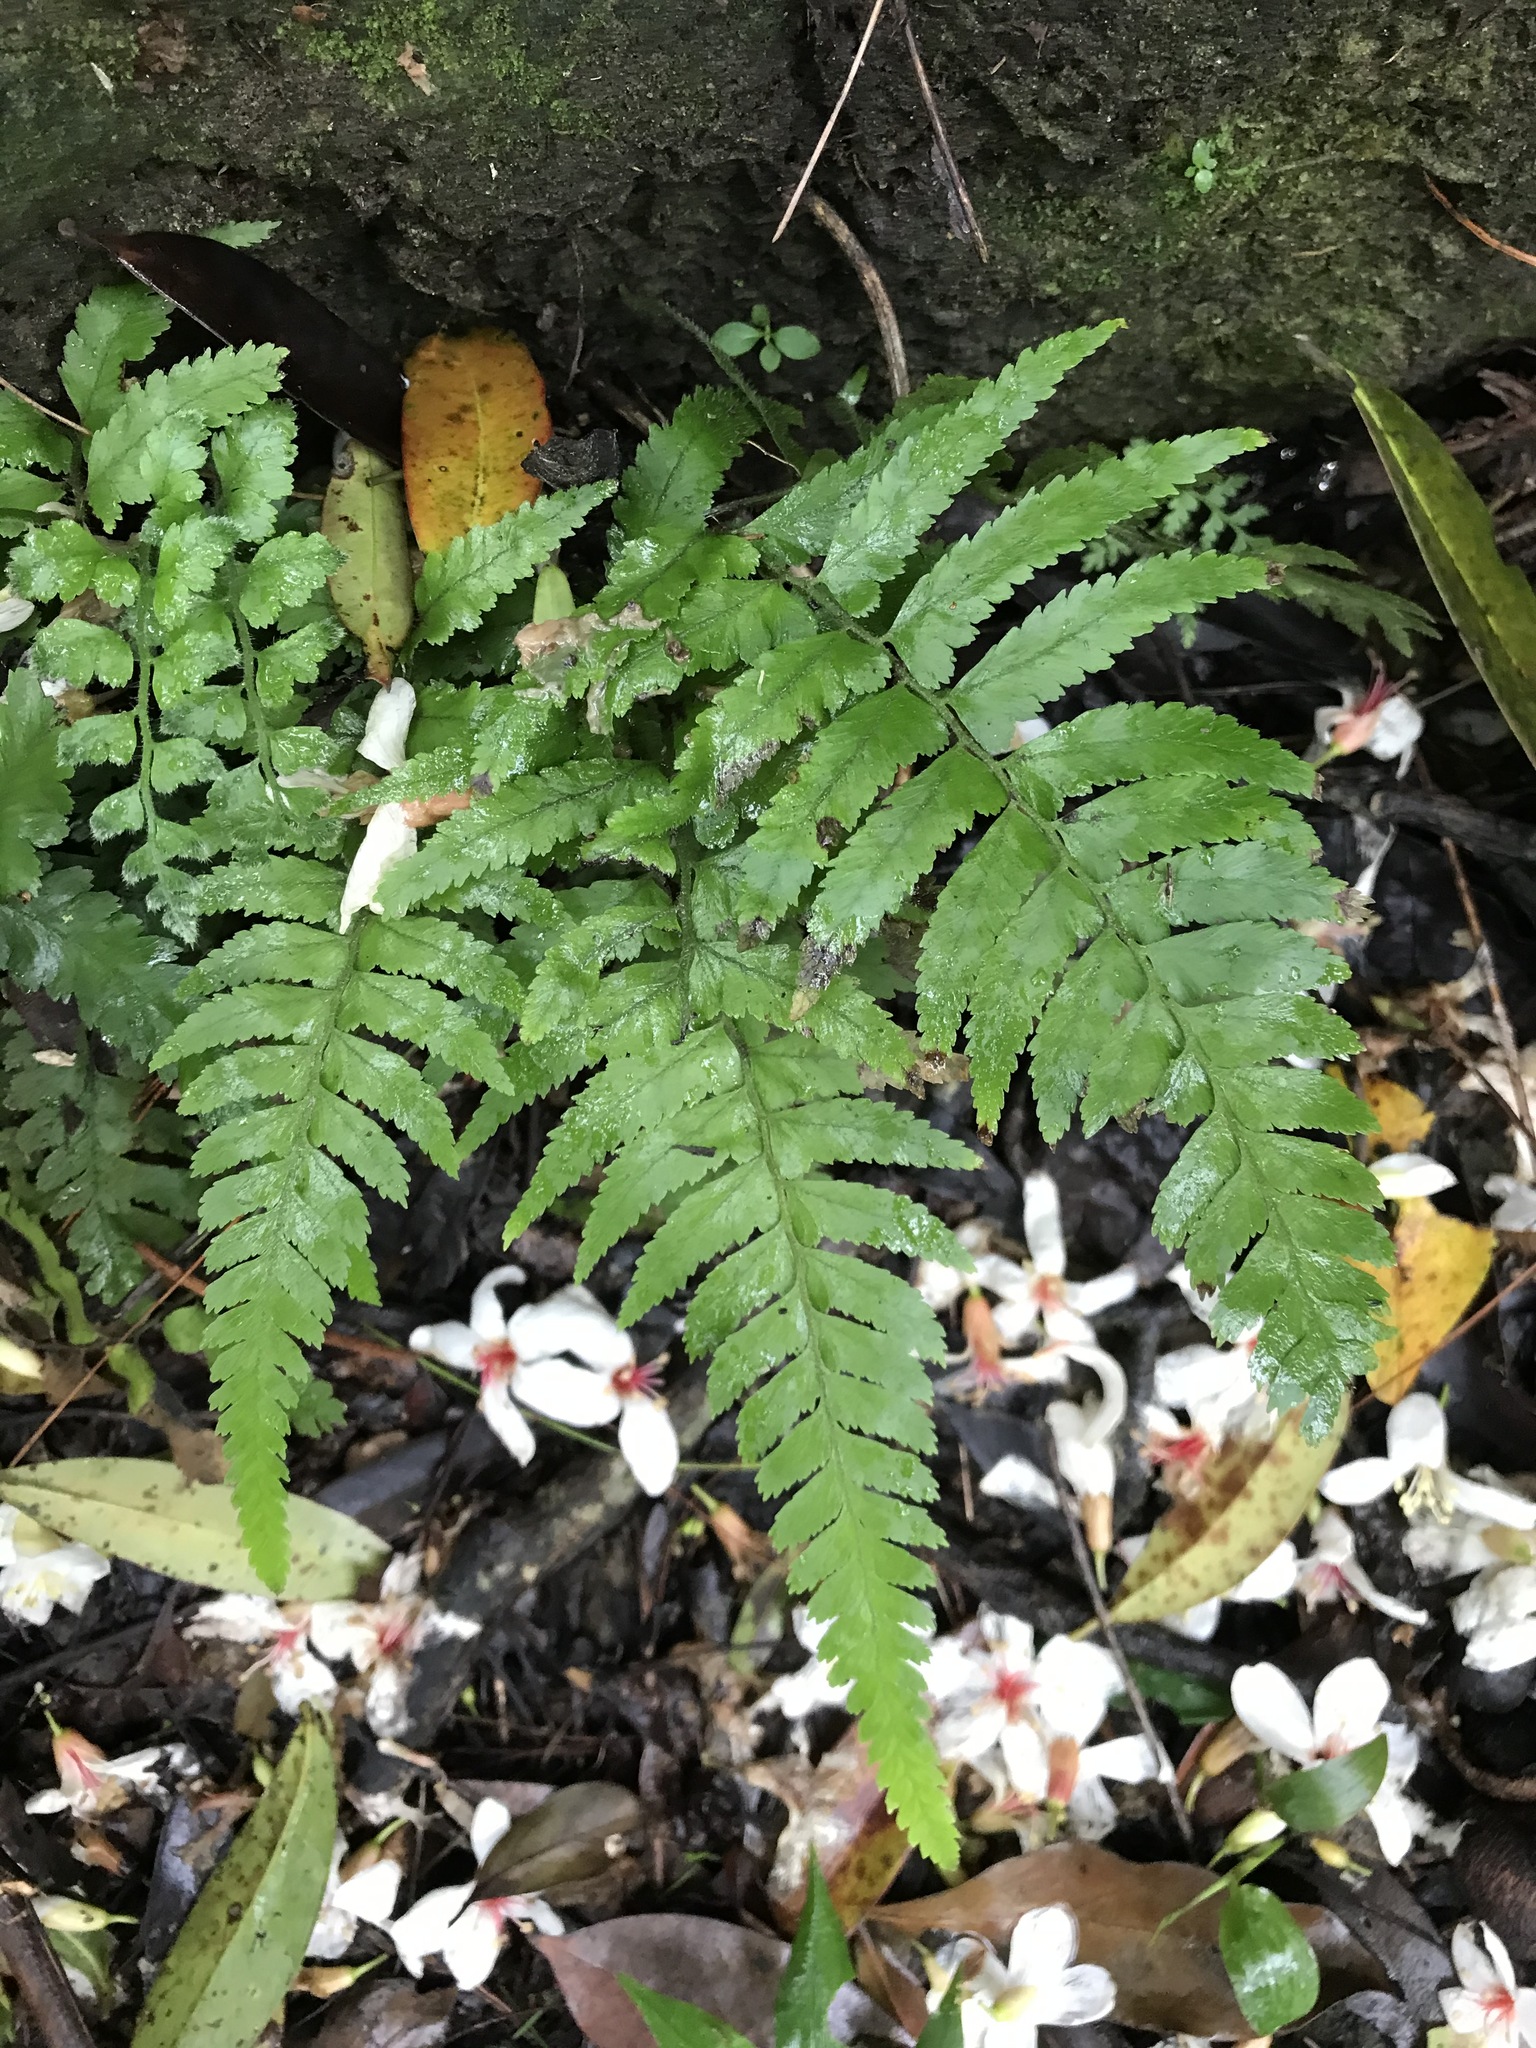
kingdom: Plantae
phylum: Tracheophyta
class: Polypodiopsida
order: Polypodiales
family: Dennstaedtiaceae
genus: Microlepia
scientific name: Microlepia marginata
